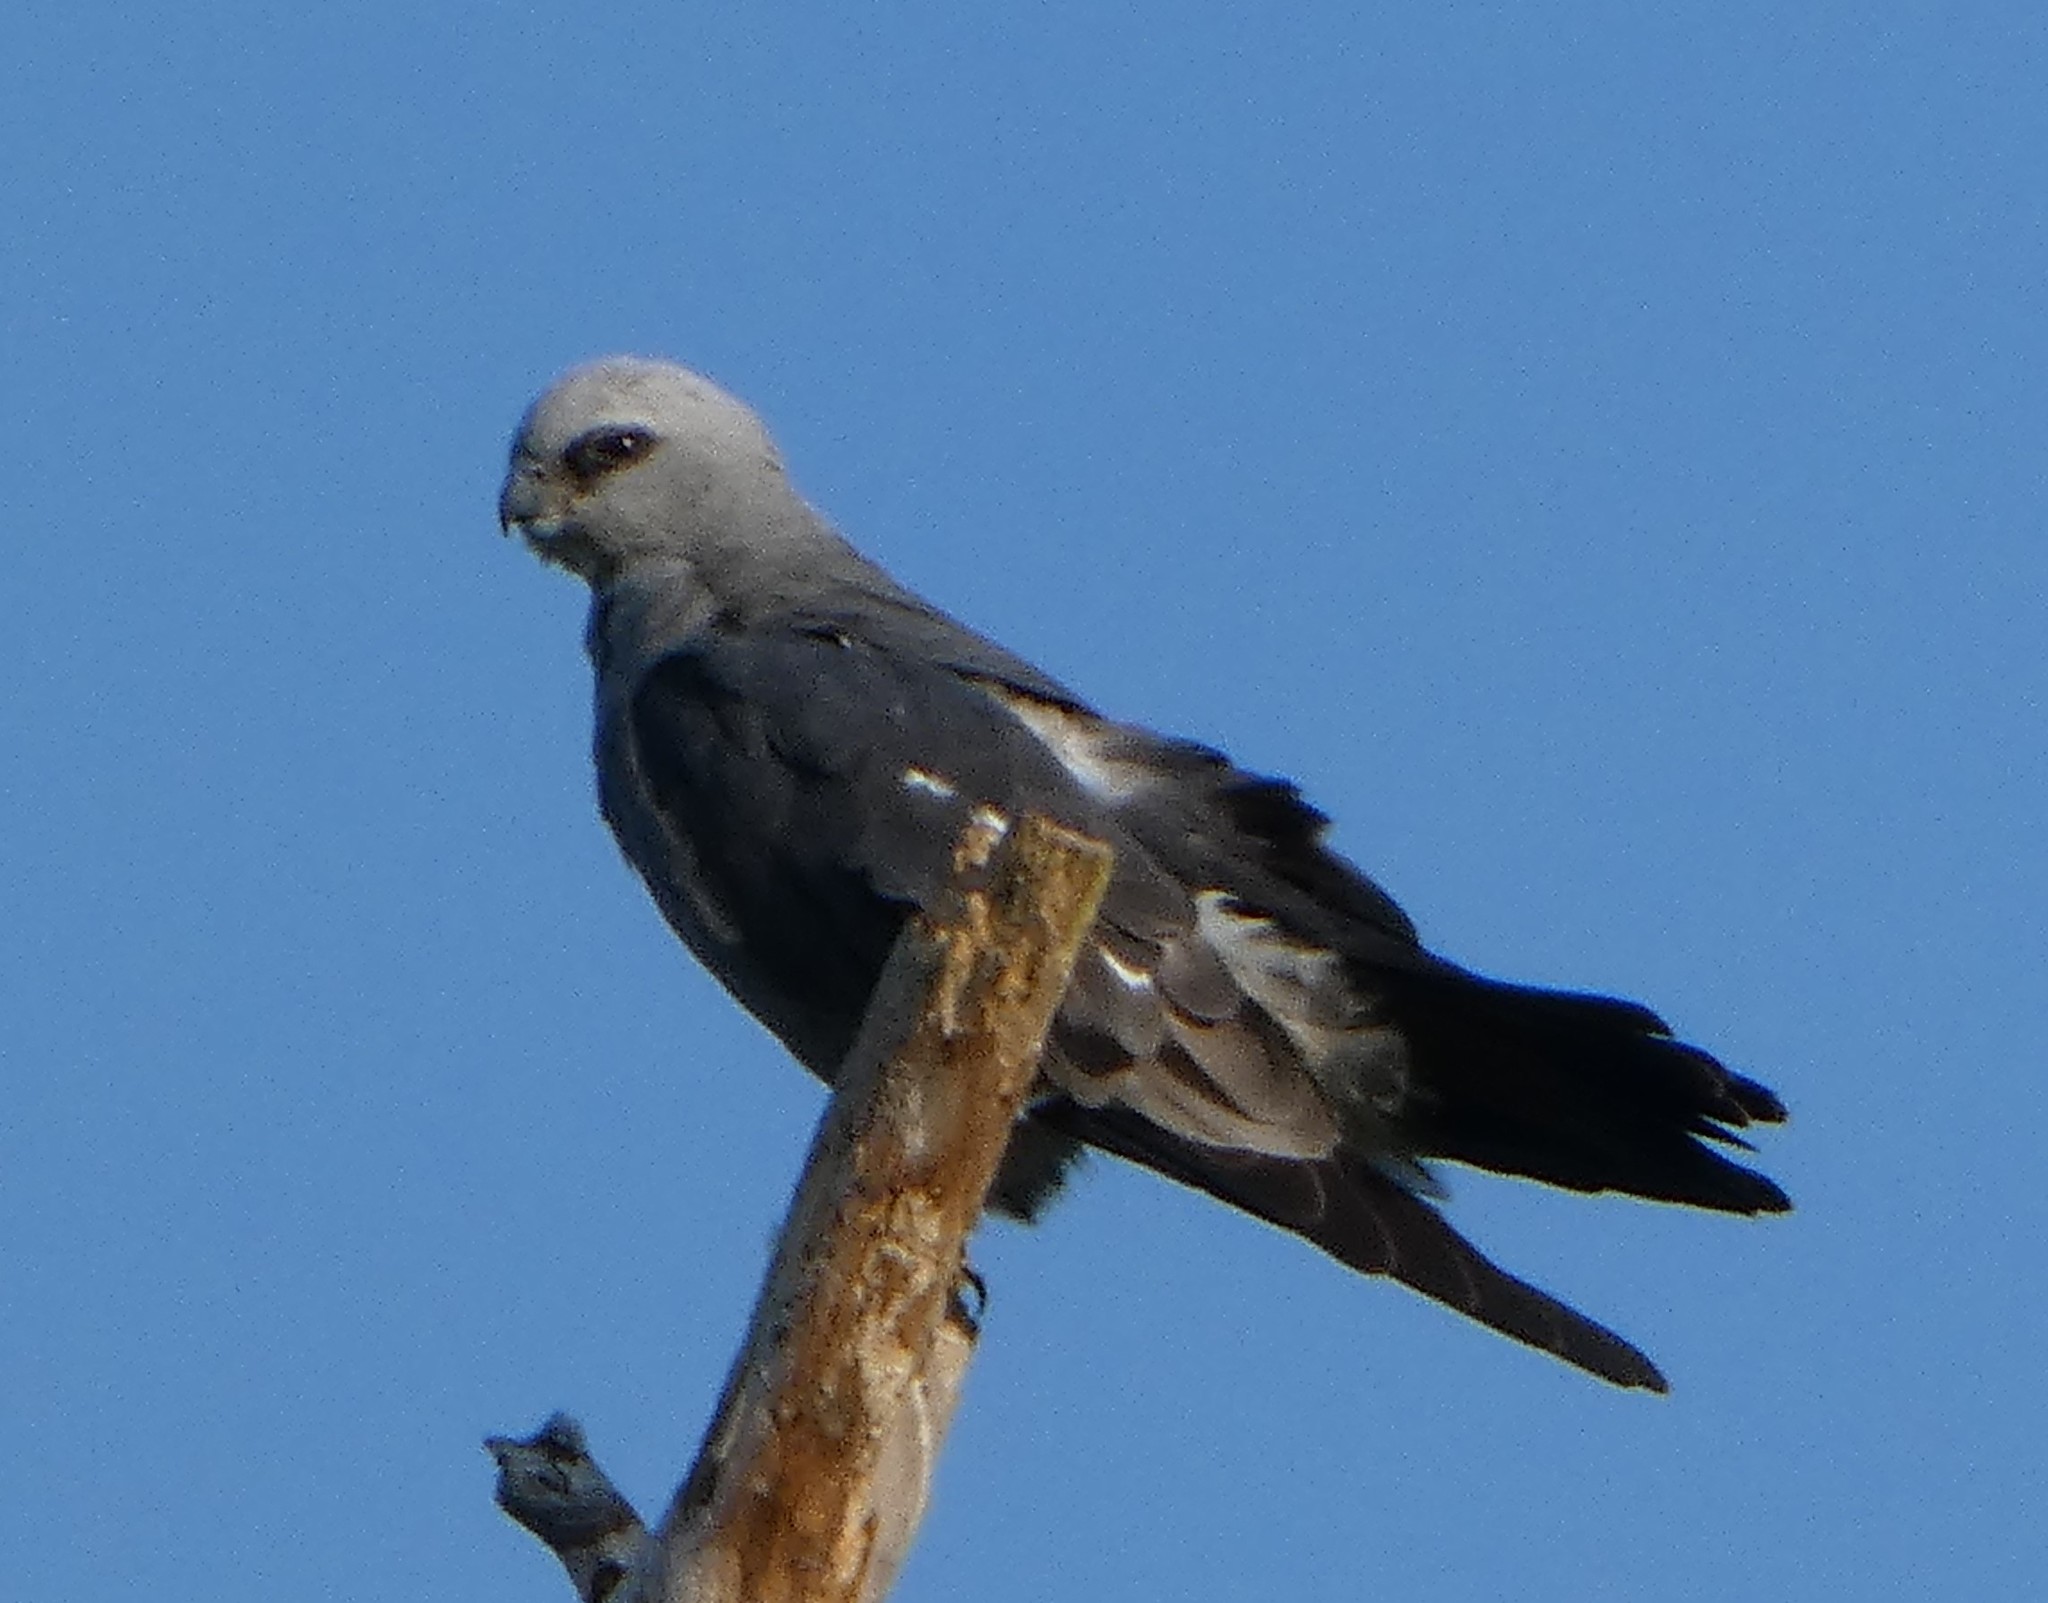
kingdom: Animalia
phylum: Chordata
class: Aves
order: Accipitriformes
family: Accipitridae
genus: Ictinia
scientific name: Ictinia mississippiensis
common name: Mississippi kite
